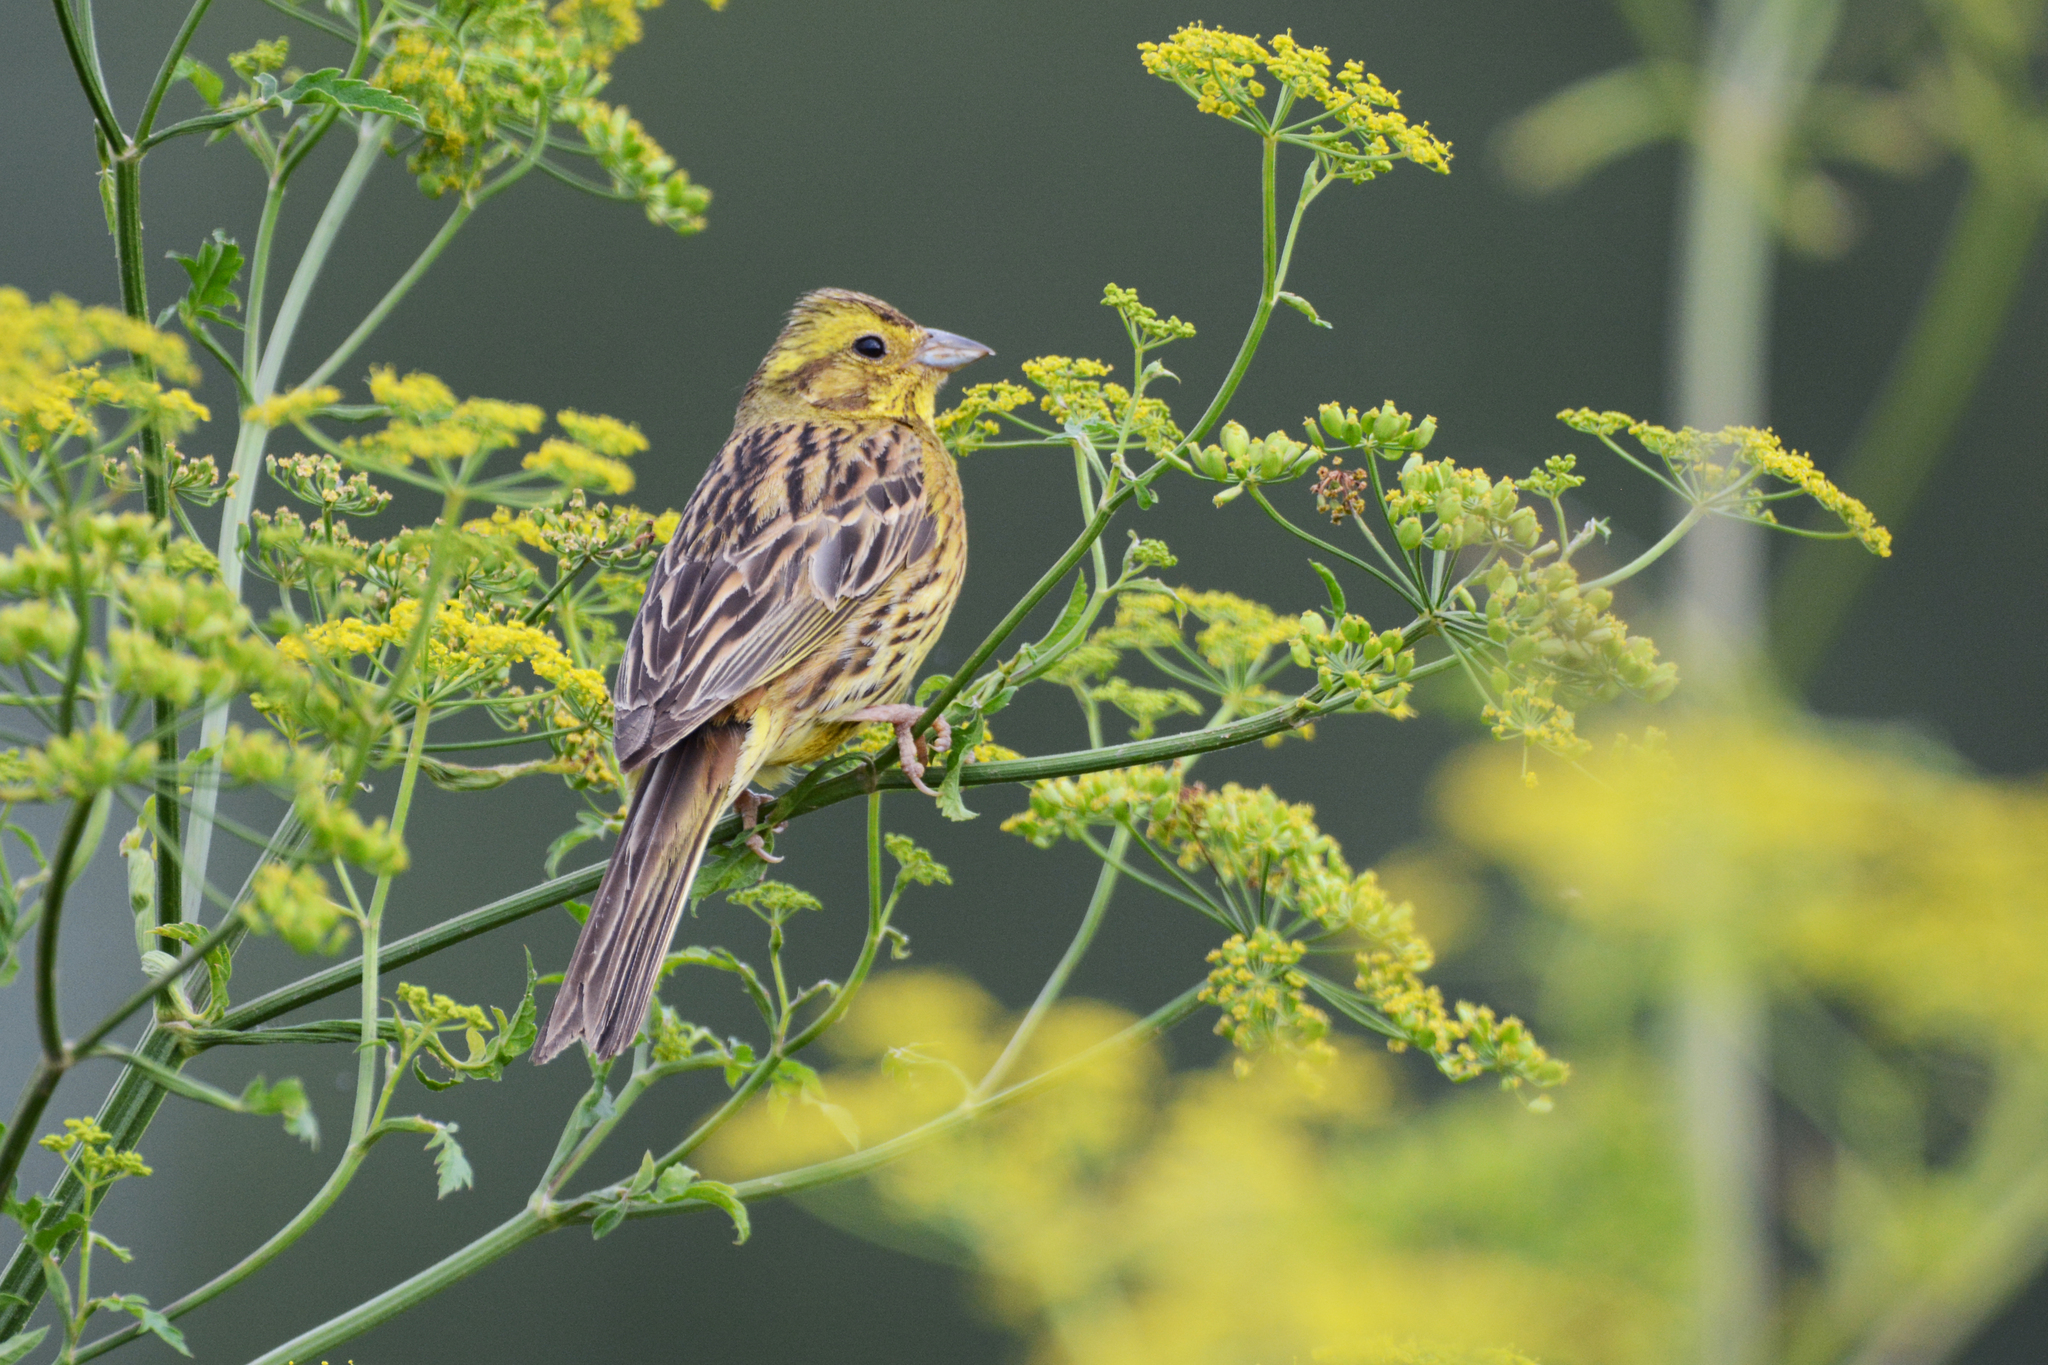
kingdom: Animalia
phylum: Chordata
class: Aves
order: Passeriformes
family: Emberizidae
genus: Emberiza
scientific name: Emberiza citrinella
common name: Yellowhammer
